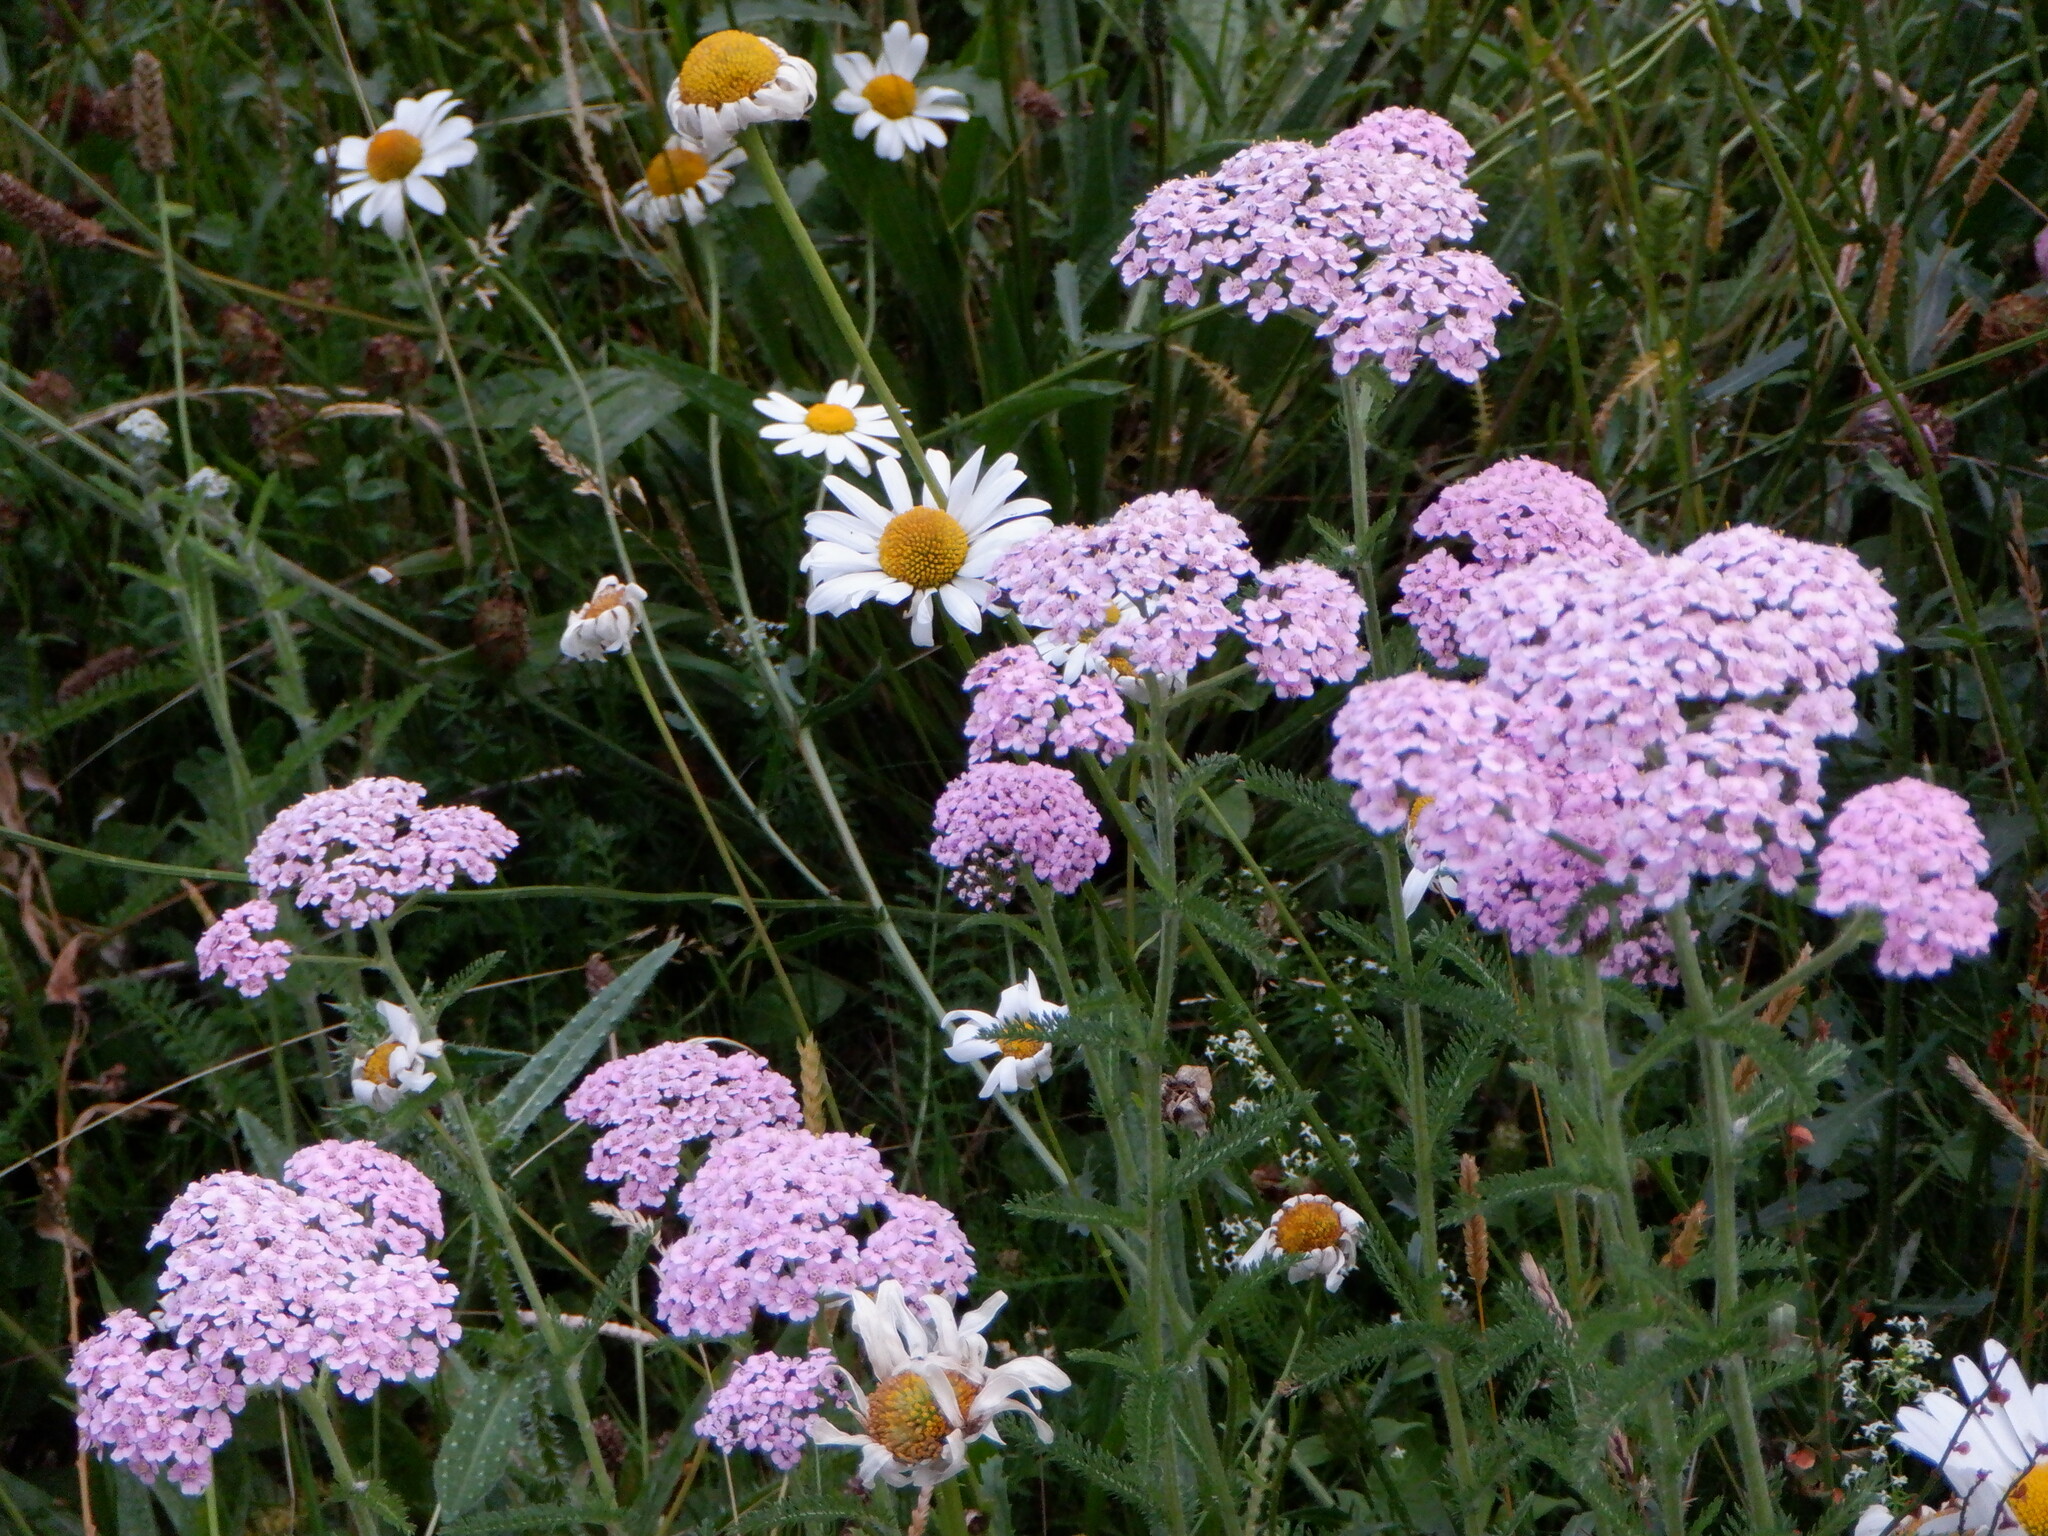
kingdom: Plantae
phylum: Tracheophyta
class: Magnoliopsida
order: Asterales
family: Asteraceae
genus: Achillea
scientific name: Achillea millefolium
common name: Yarrow
